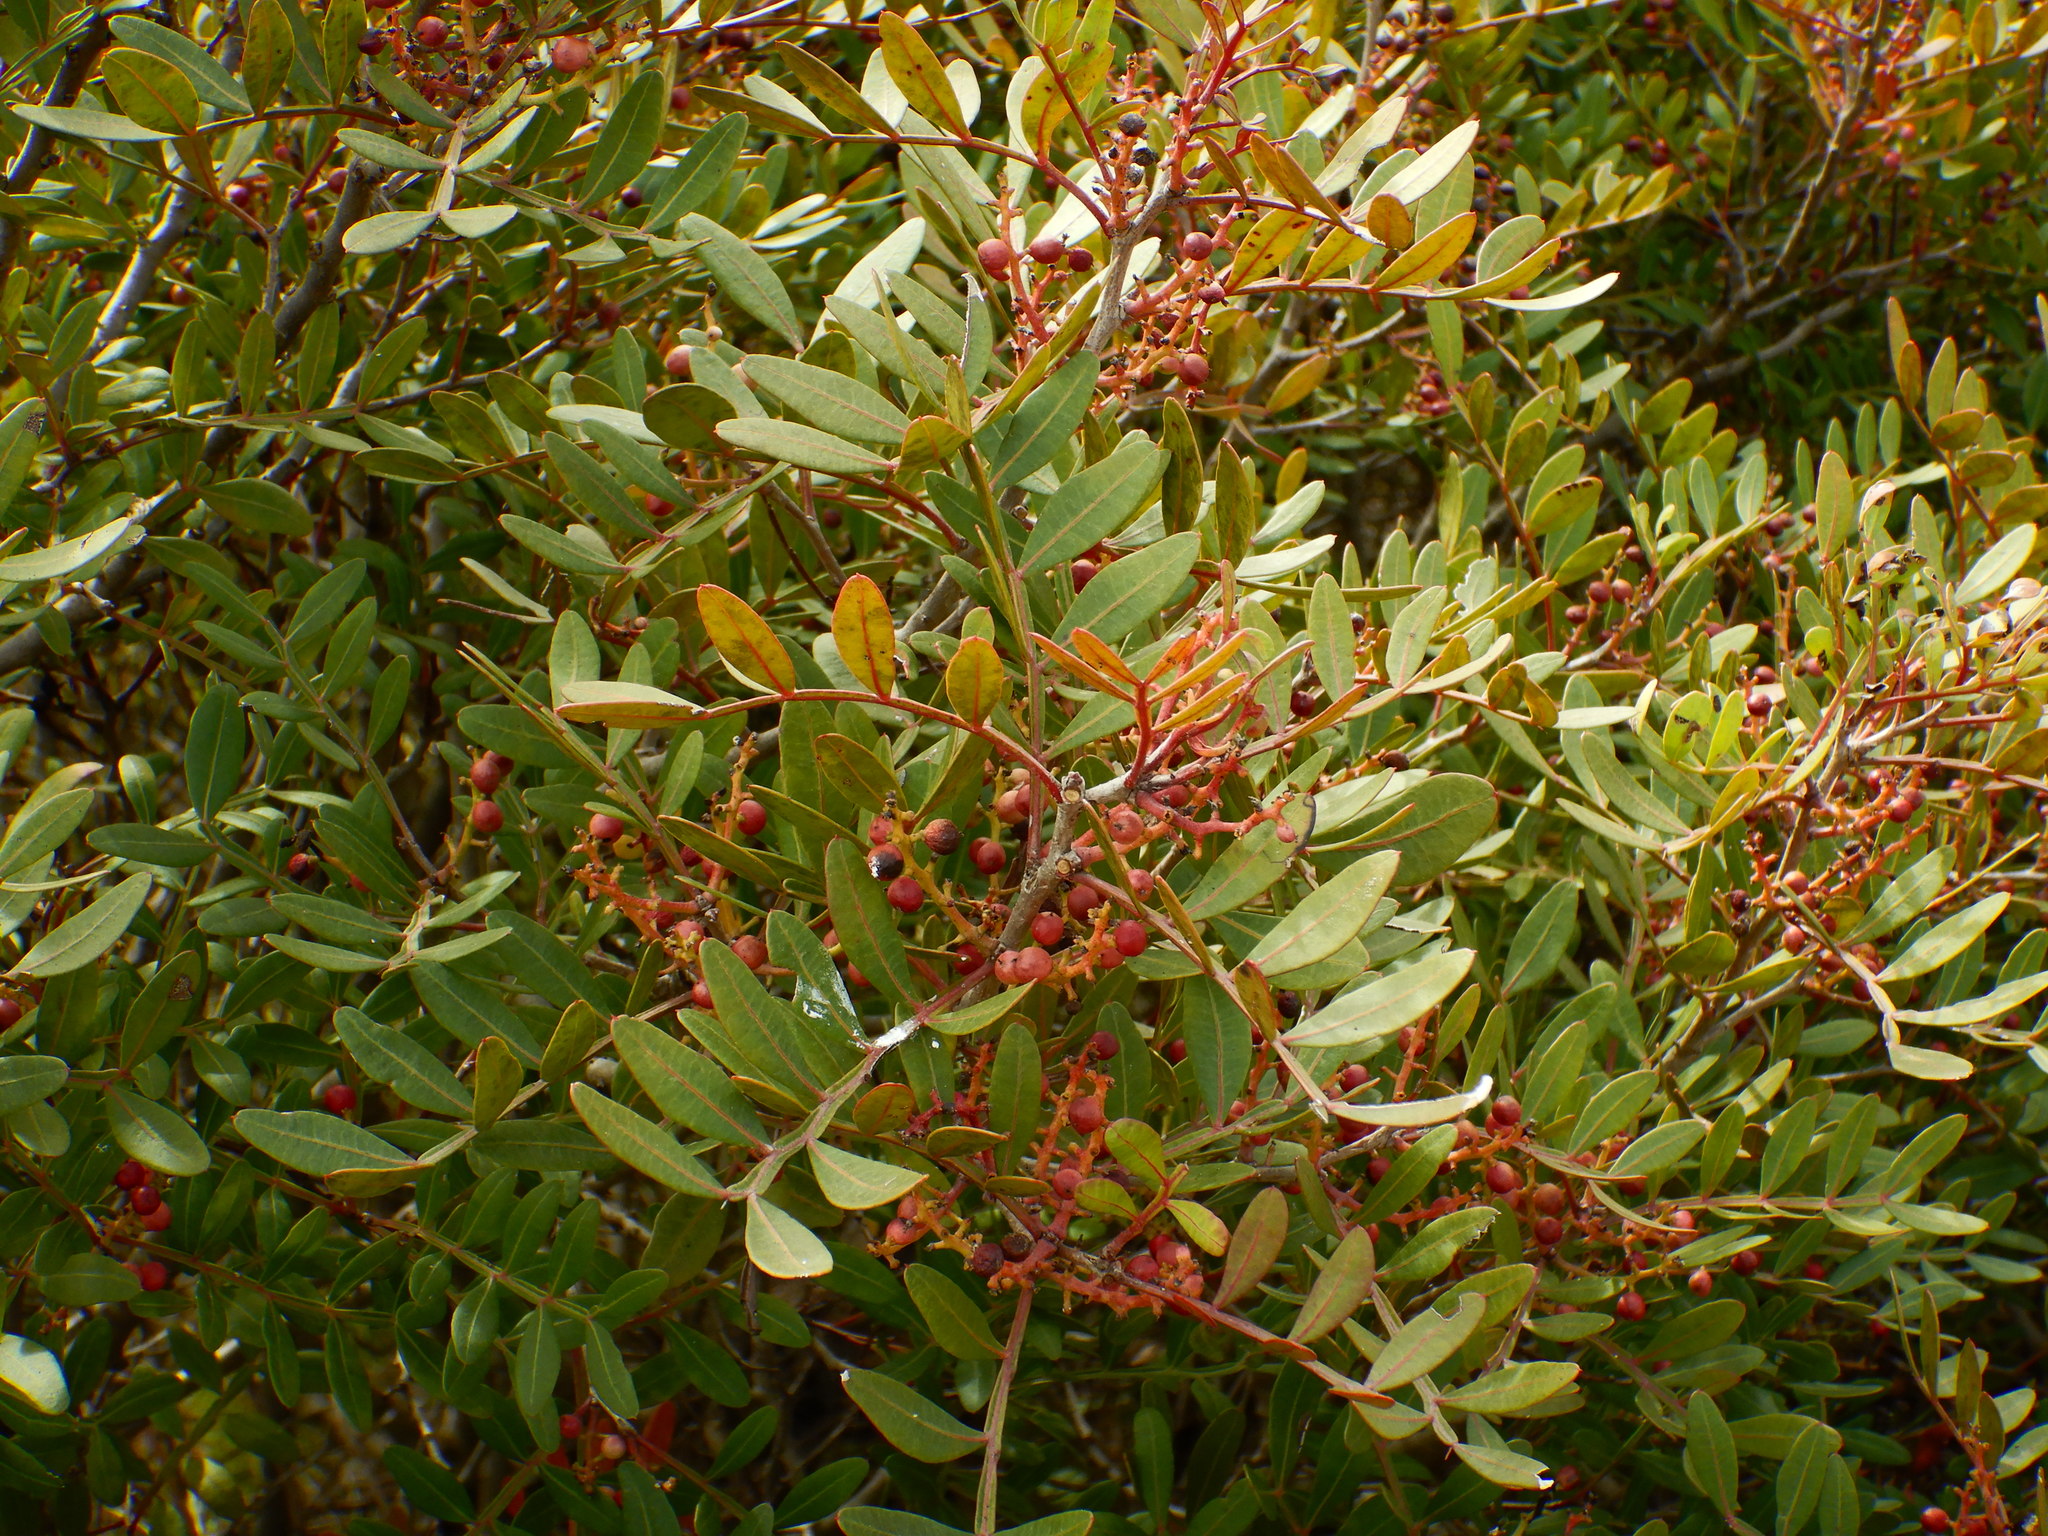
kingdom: Plantae
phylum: Tracheophyta
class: Magnoliopsida
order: Sapindales
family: Anacardiaceae
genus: Pistacia
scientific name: Pistacia lentiscus
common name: Lentisk
